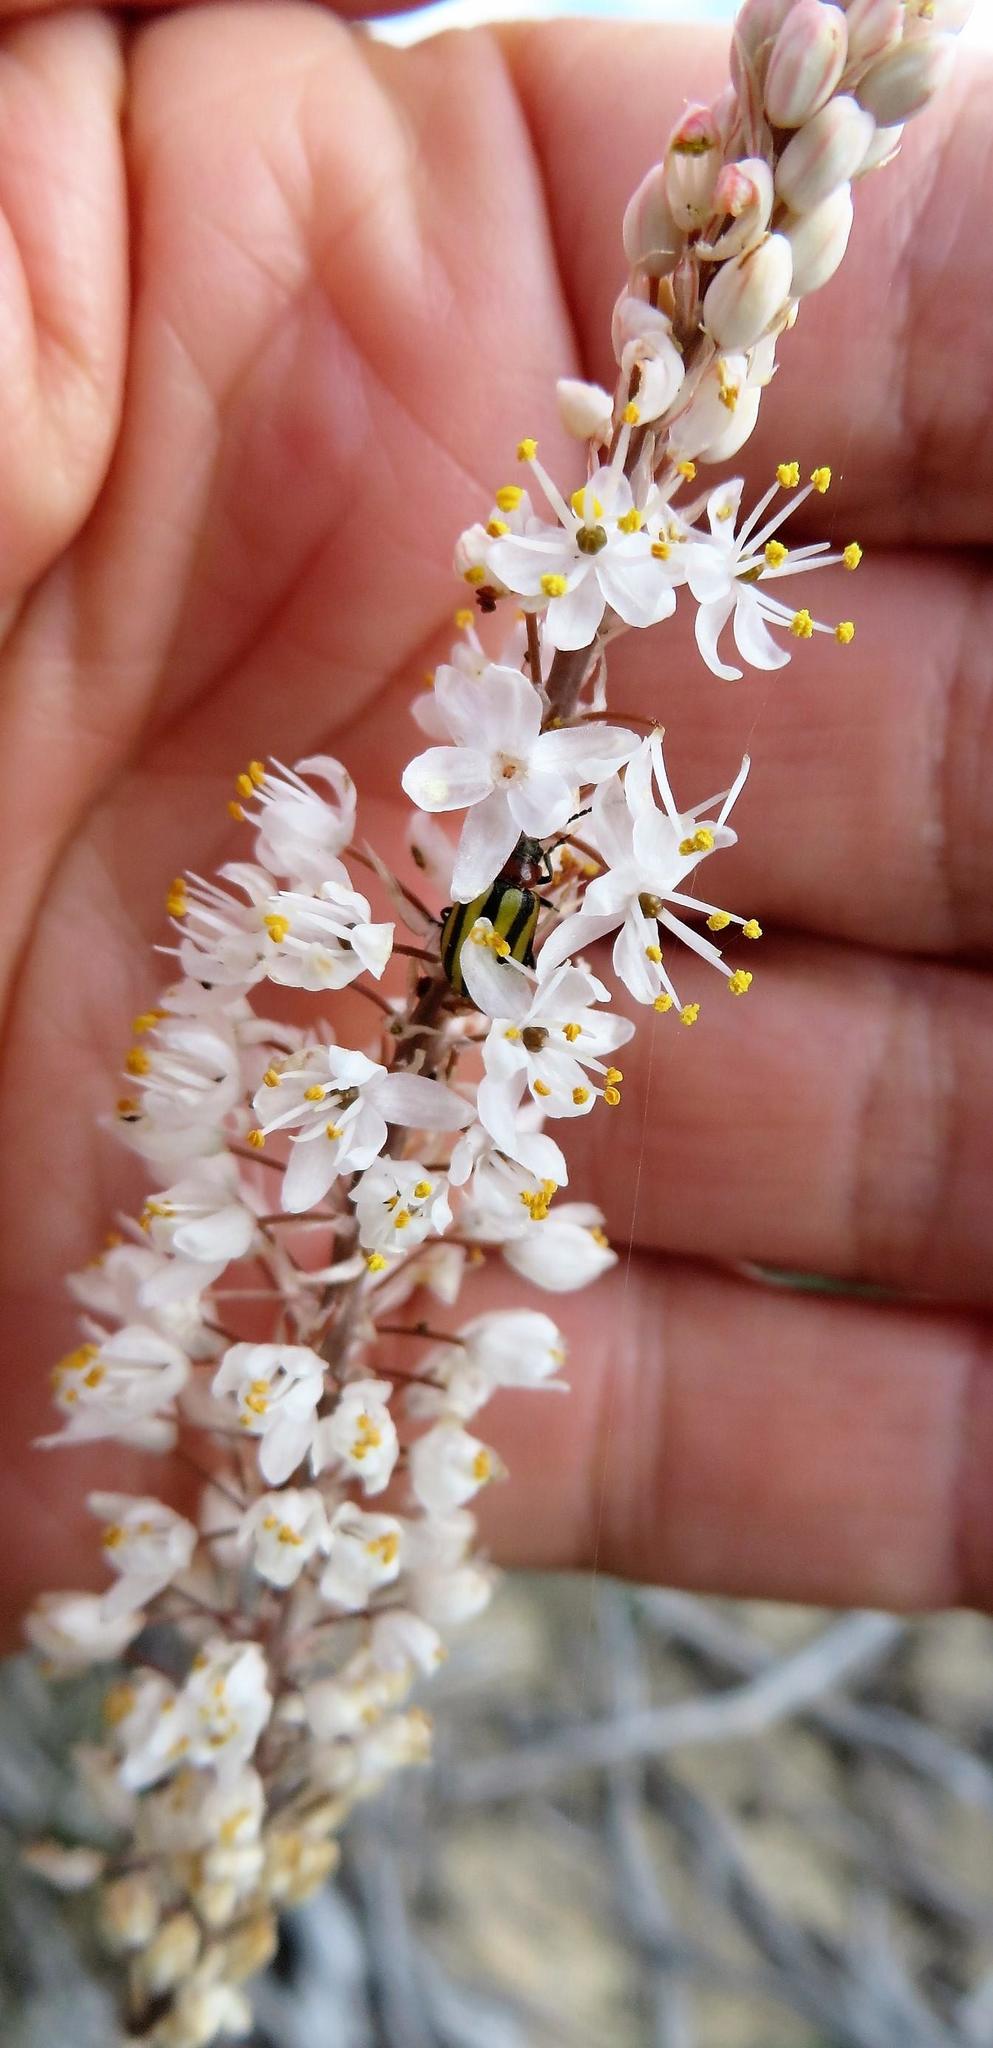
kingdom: Plantae
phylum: Tracheophyta
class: Liliopsida
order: Asparagales
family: Asphodelaceae
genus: Bulbinella
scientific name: Bulbinella cauda-felis
